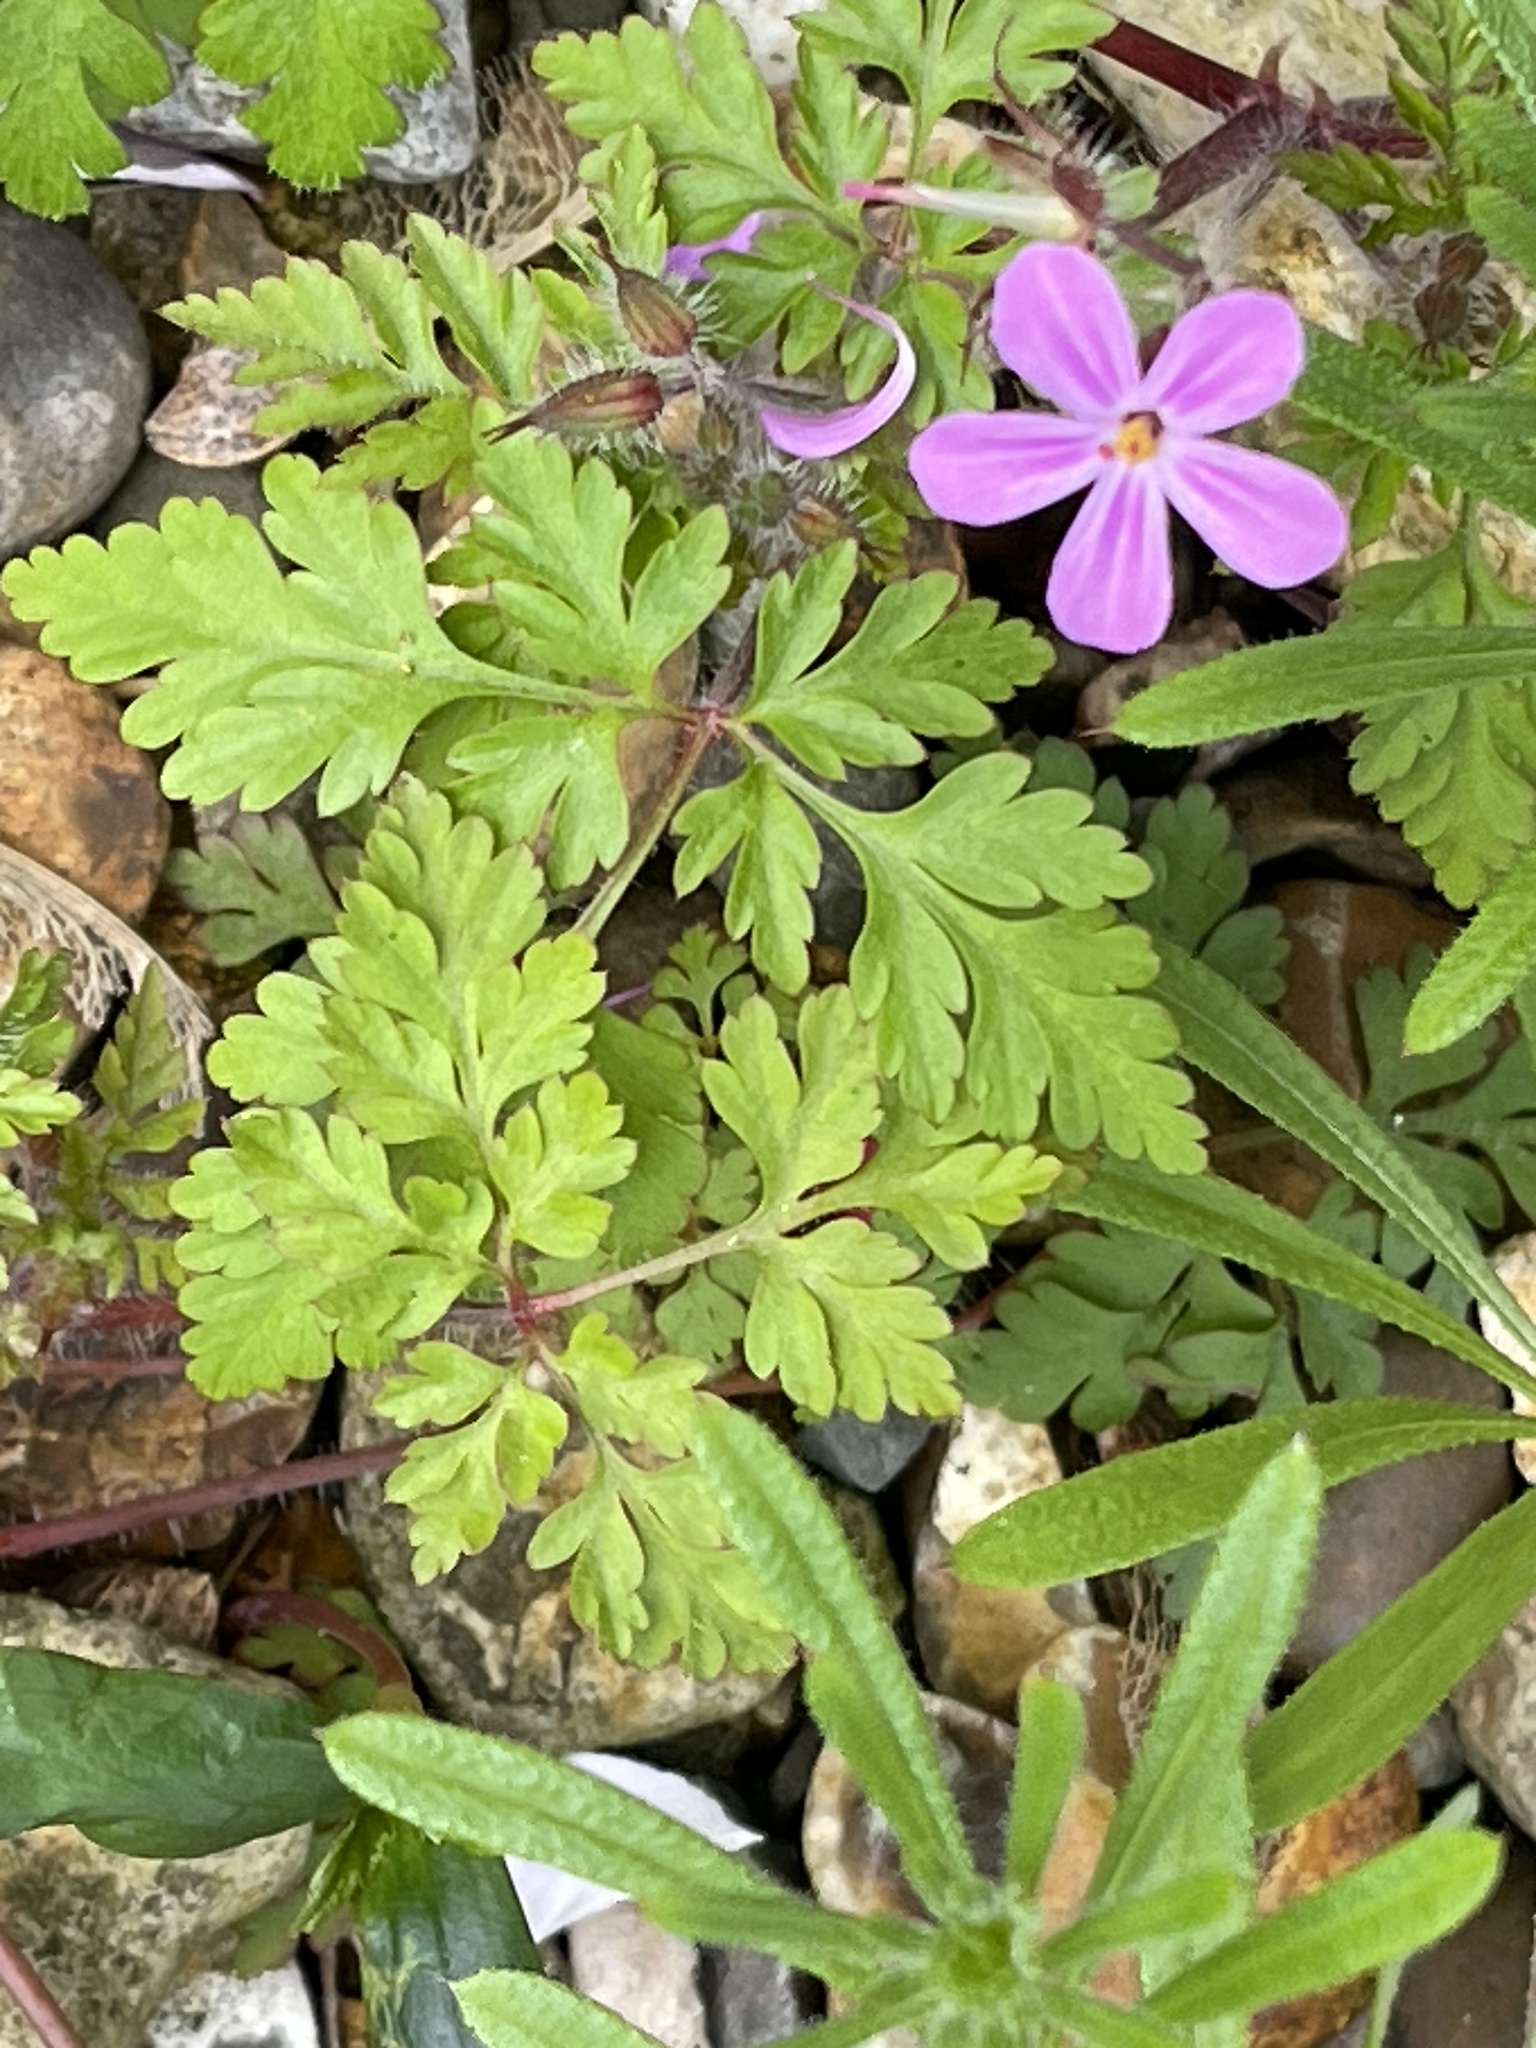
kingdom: Plantae
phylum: Tracheophyta
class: Magnoliopsida
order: Geraniales
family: Geraniaceae
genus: Geranium
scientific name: Geranium robertianum
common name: Herb-robert
